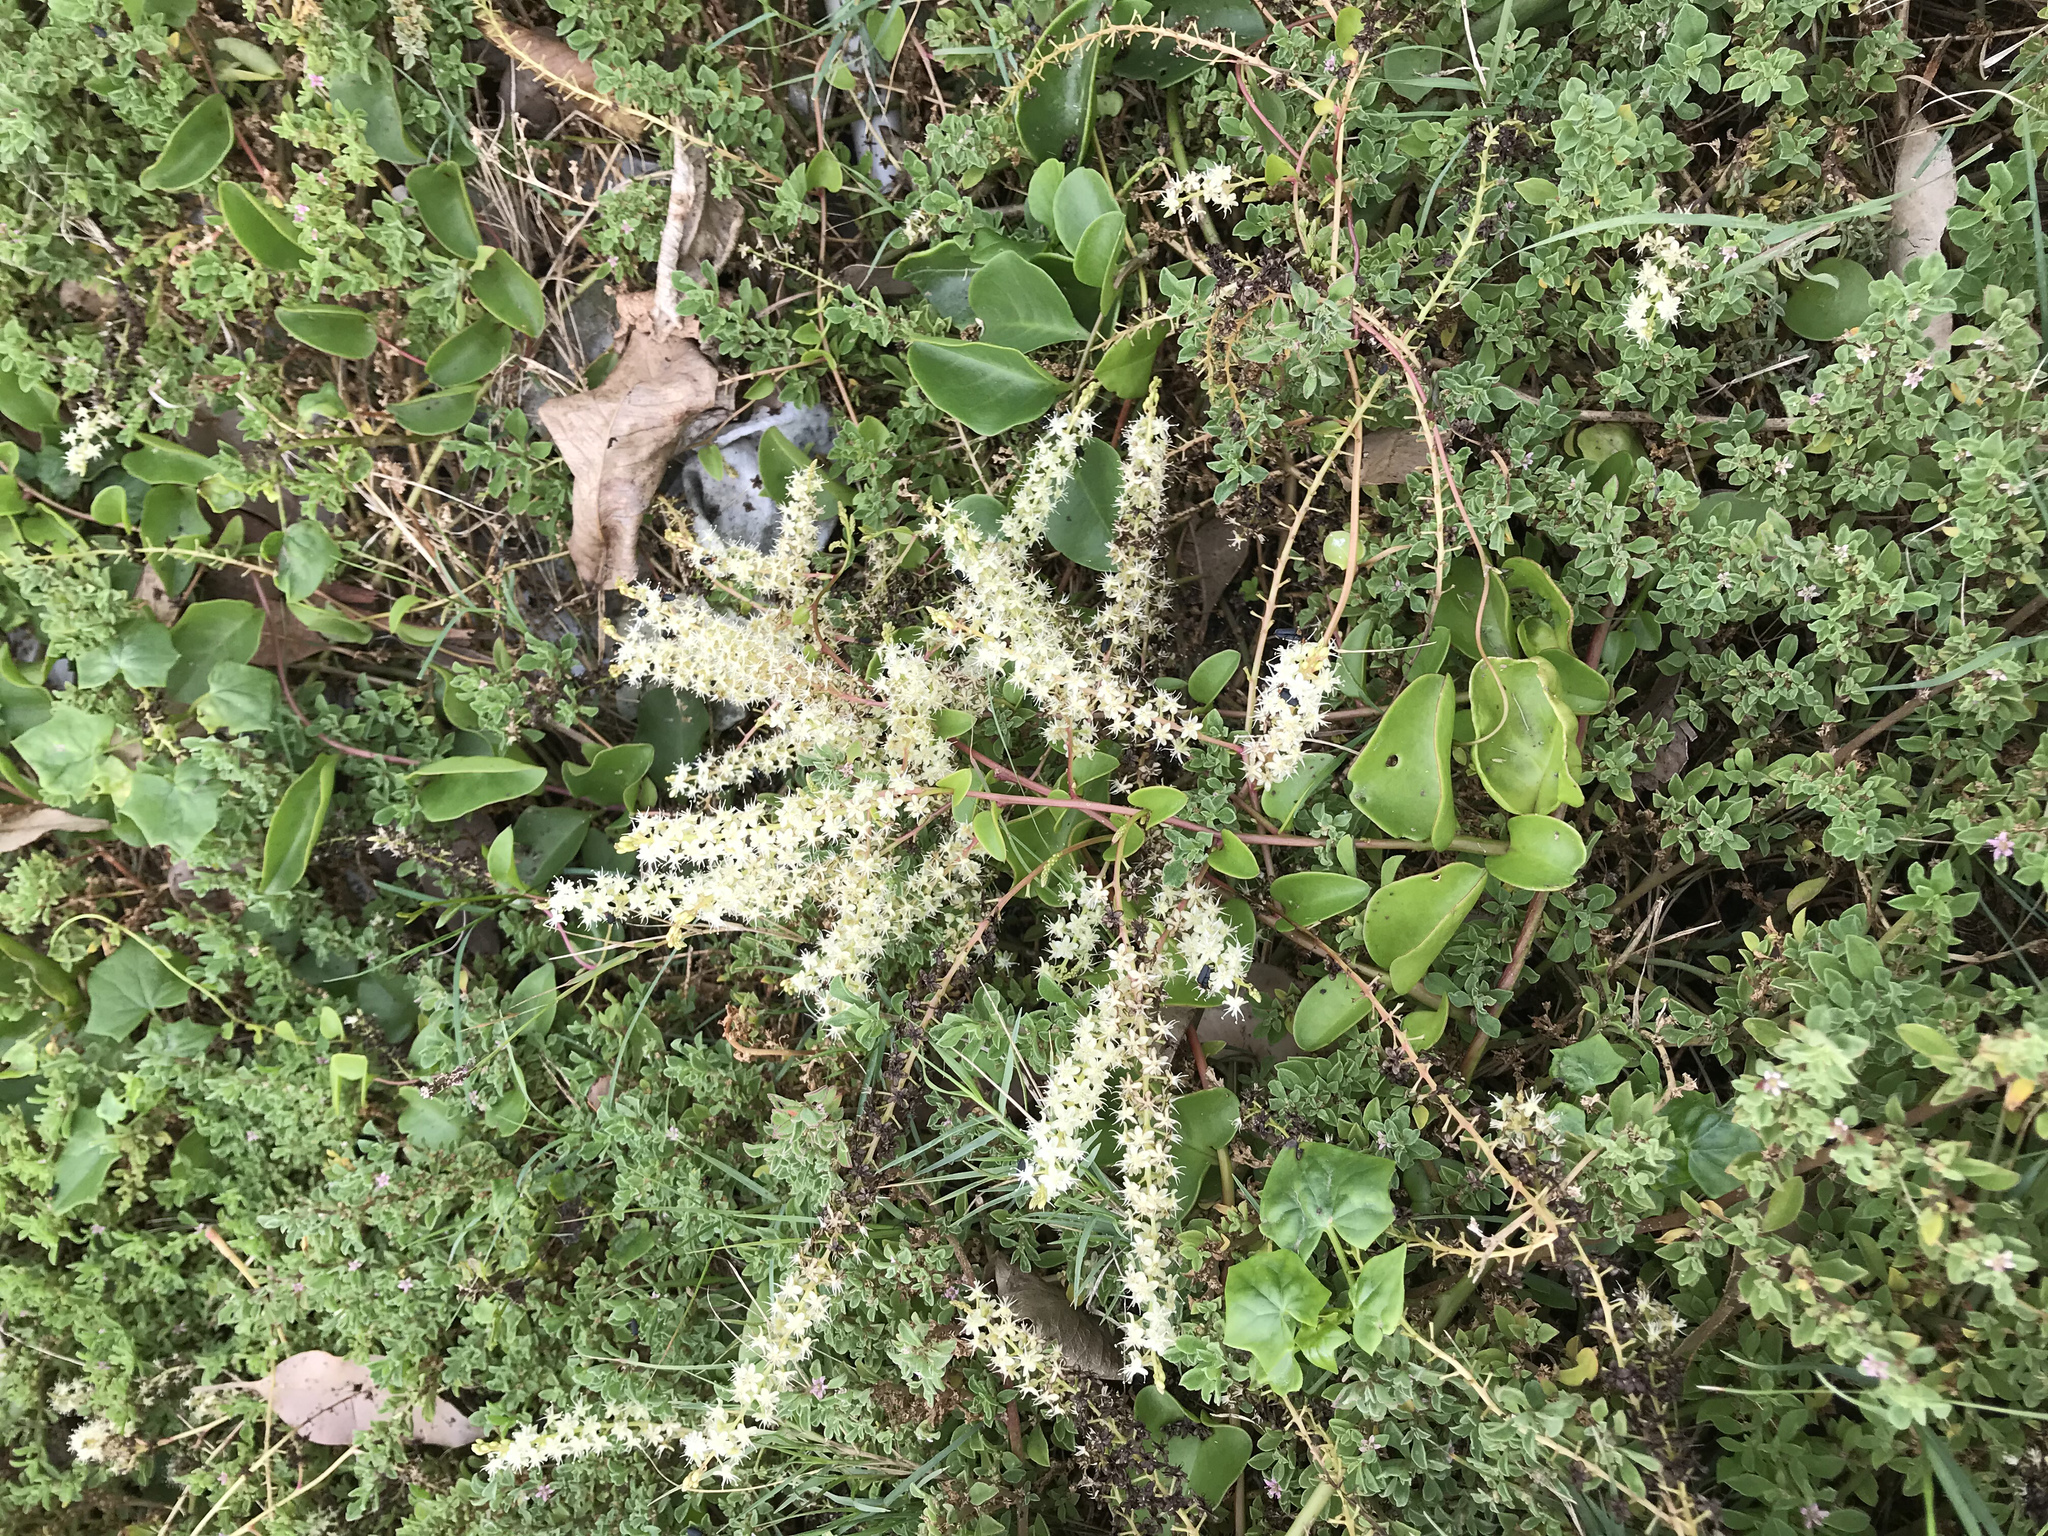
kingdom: Plantae
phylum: Tracheophyta
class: Magnoliopsida
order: Caryophyllales
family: Basellaceae
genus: Anredera
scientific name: Anredera cordifolia
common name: Heartleaf madeiravine
